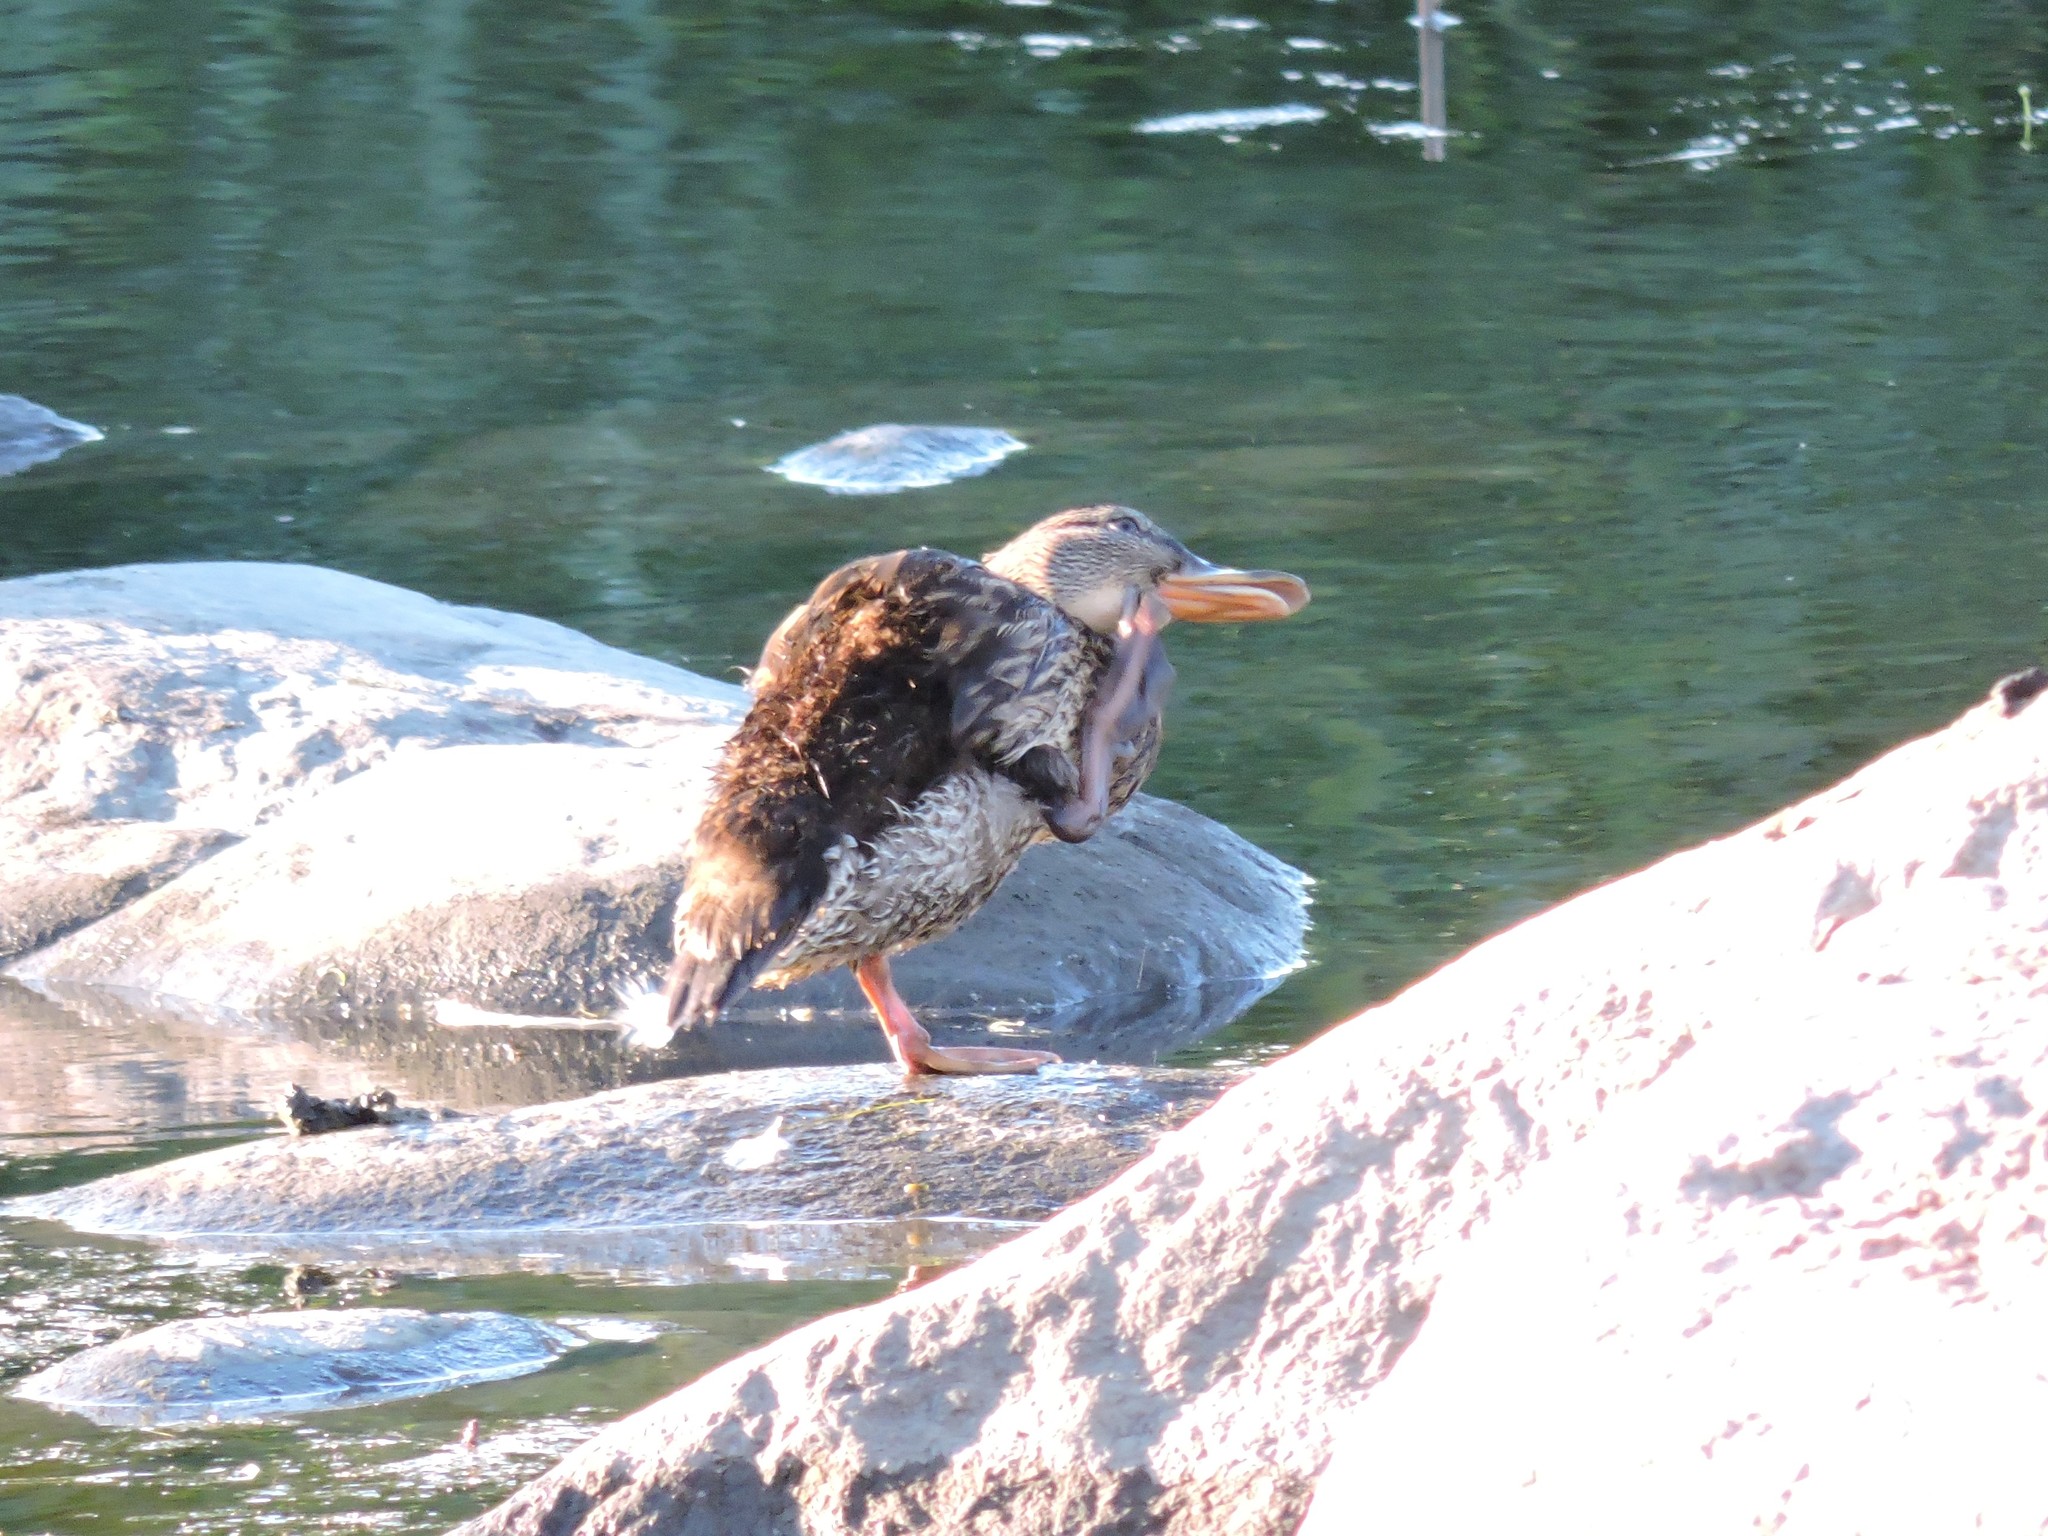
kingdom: Animalia
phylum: Chordata
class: Aves
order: Anseriformes
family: Anatidae
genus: Anas
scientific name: Anas platyrhynchos
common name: Mallard
